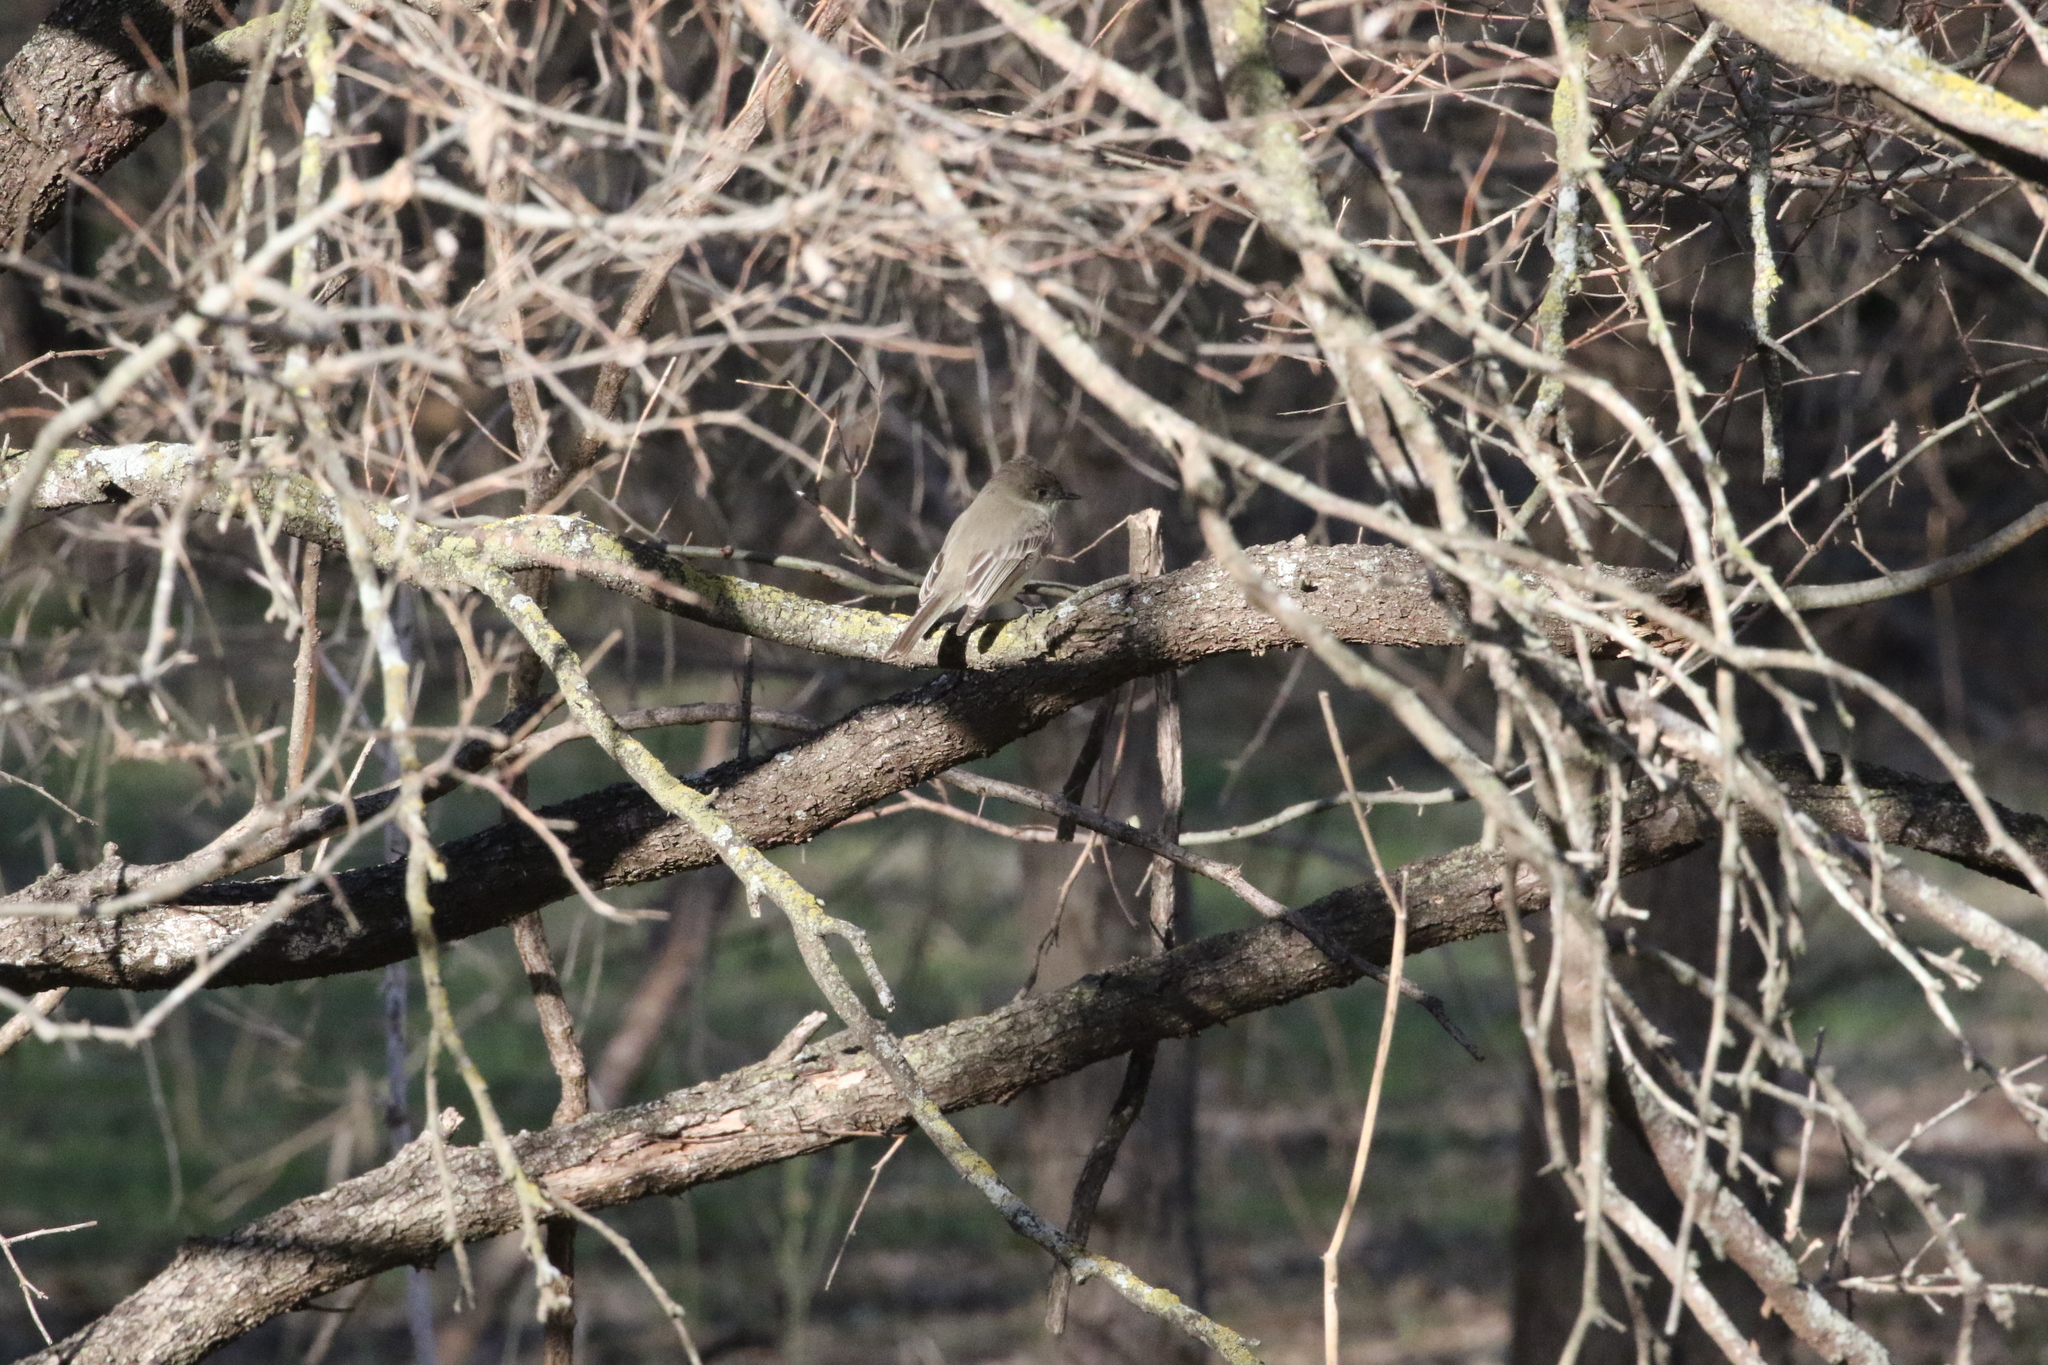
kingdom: Animalia
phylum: Chordata
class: Aves
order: Passeriformes
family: Tyrannidae
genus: Sayornis
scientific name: Sayornis phoebe
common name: Eastern phoebe
